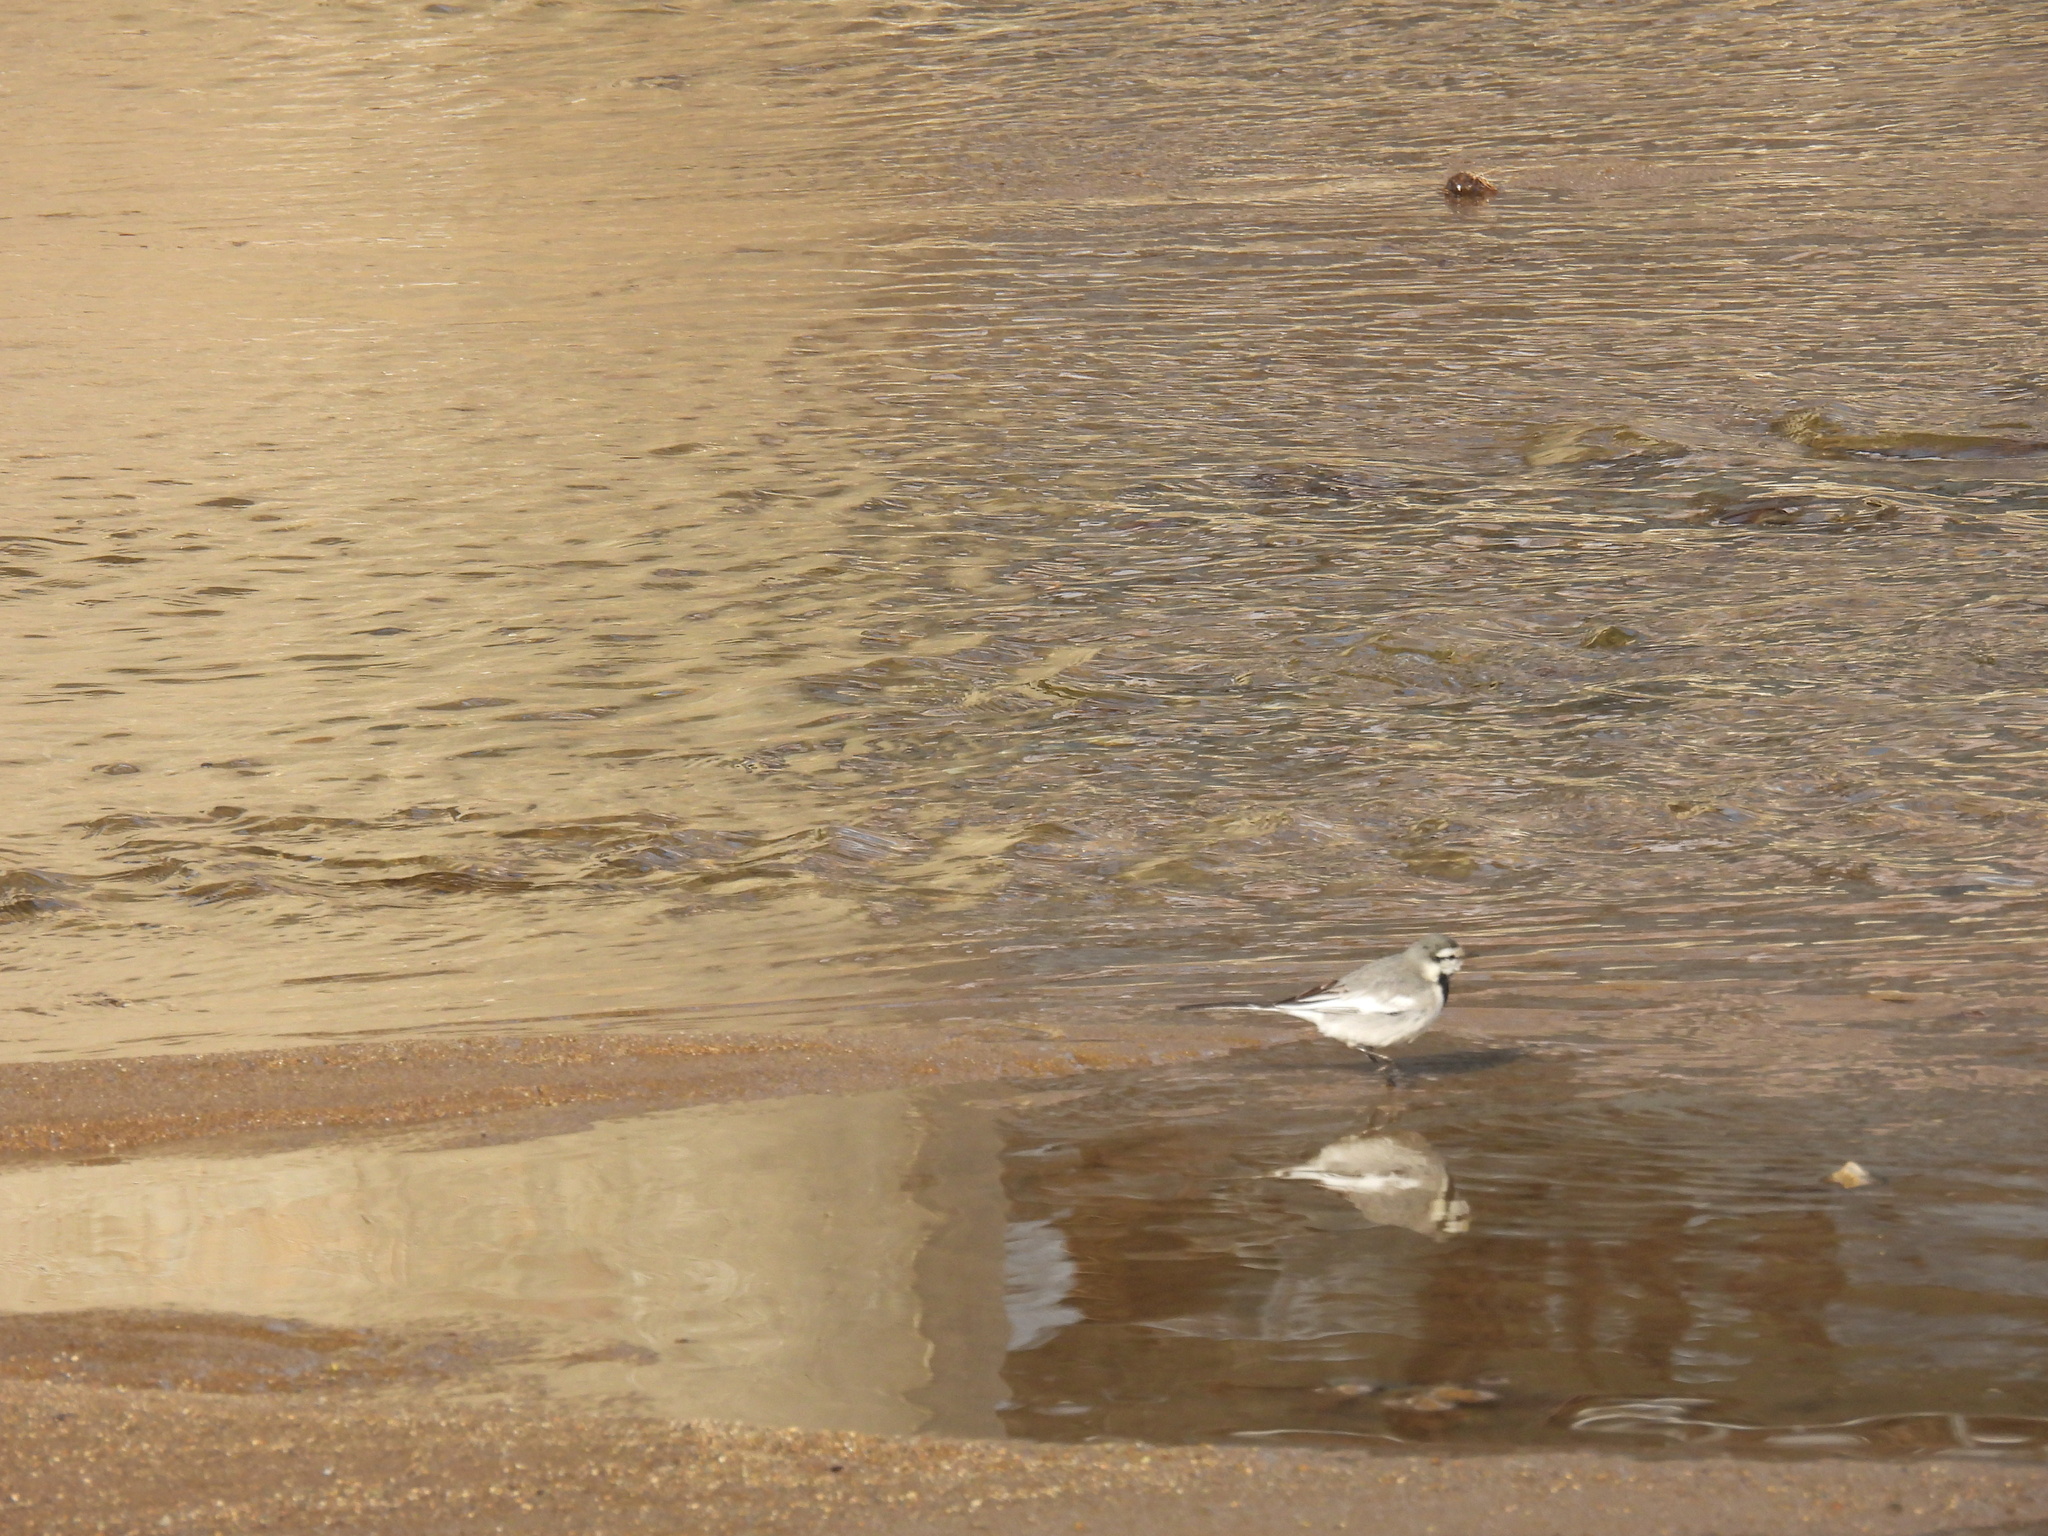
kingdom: Animalia
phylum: Chordata
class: Aves
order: Passeriformes
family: Motacillidae
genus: Motacilla
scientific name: Motacilla alba
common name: White wagtail
